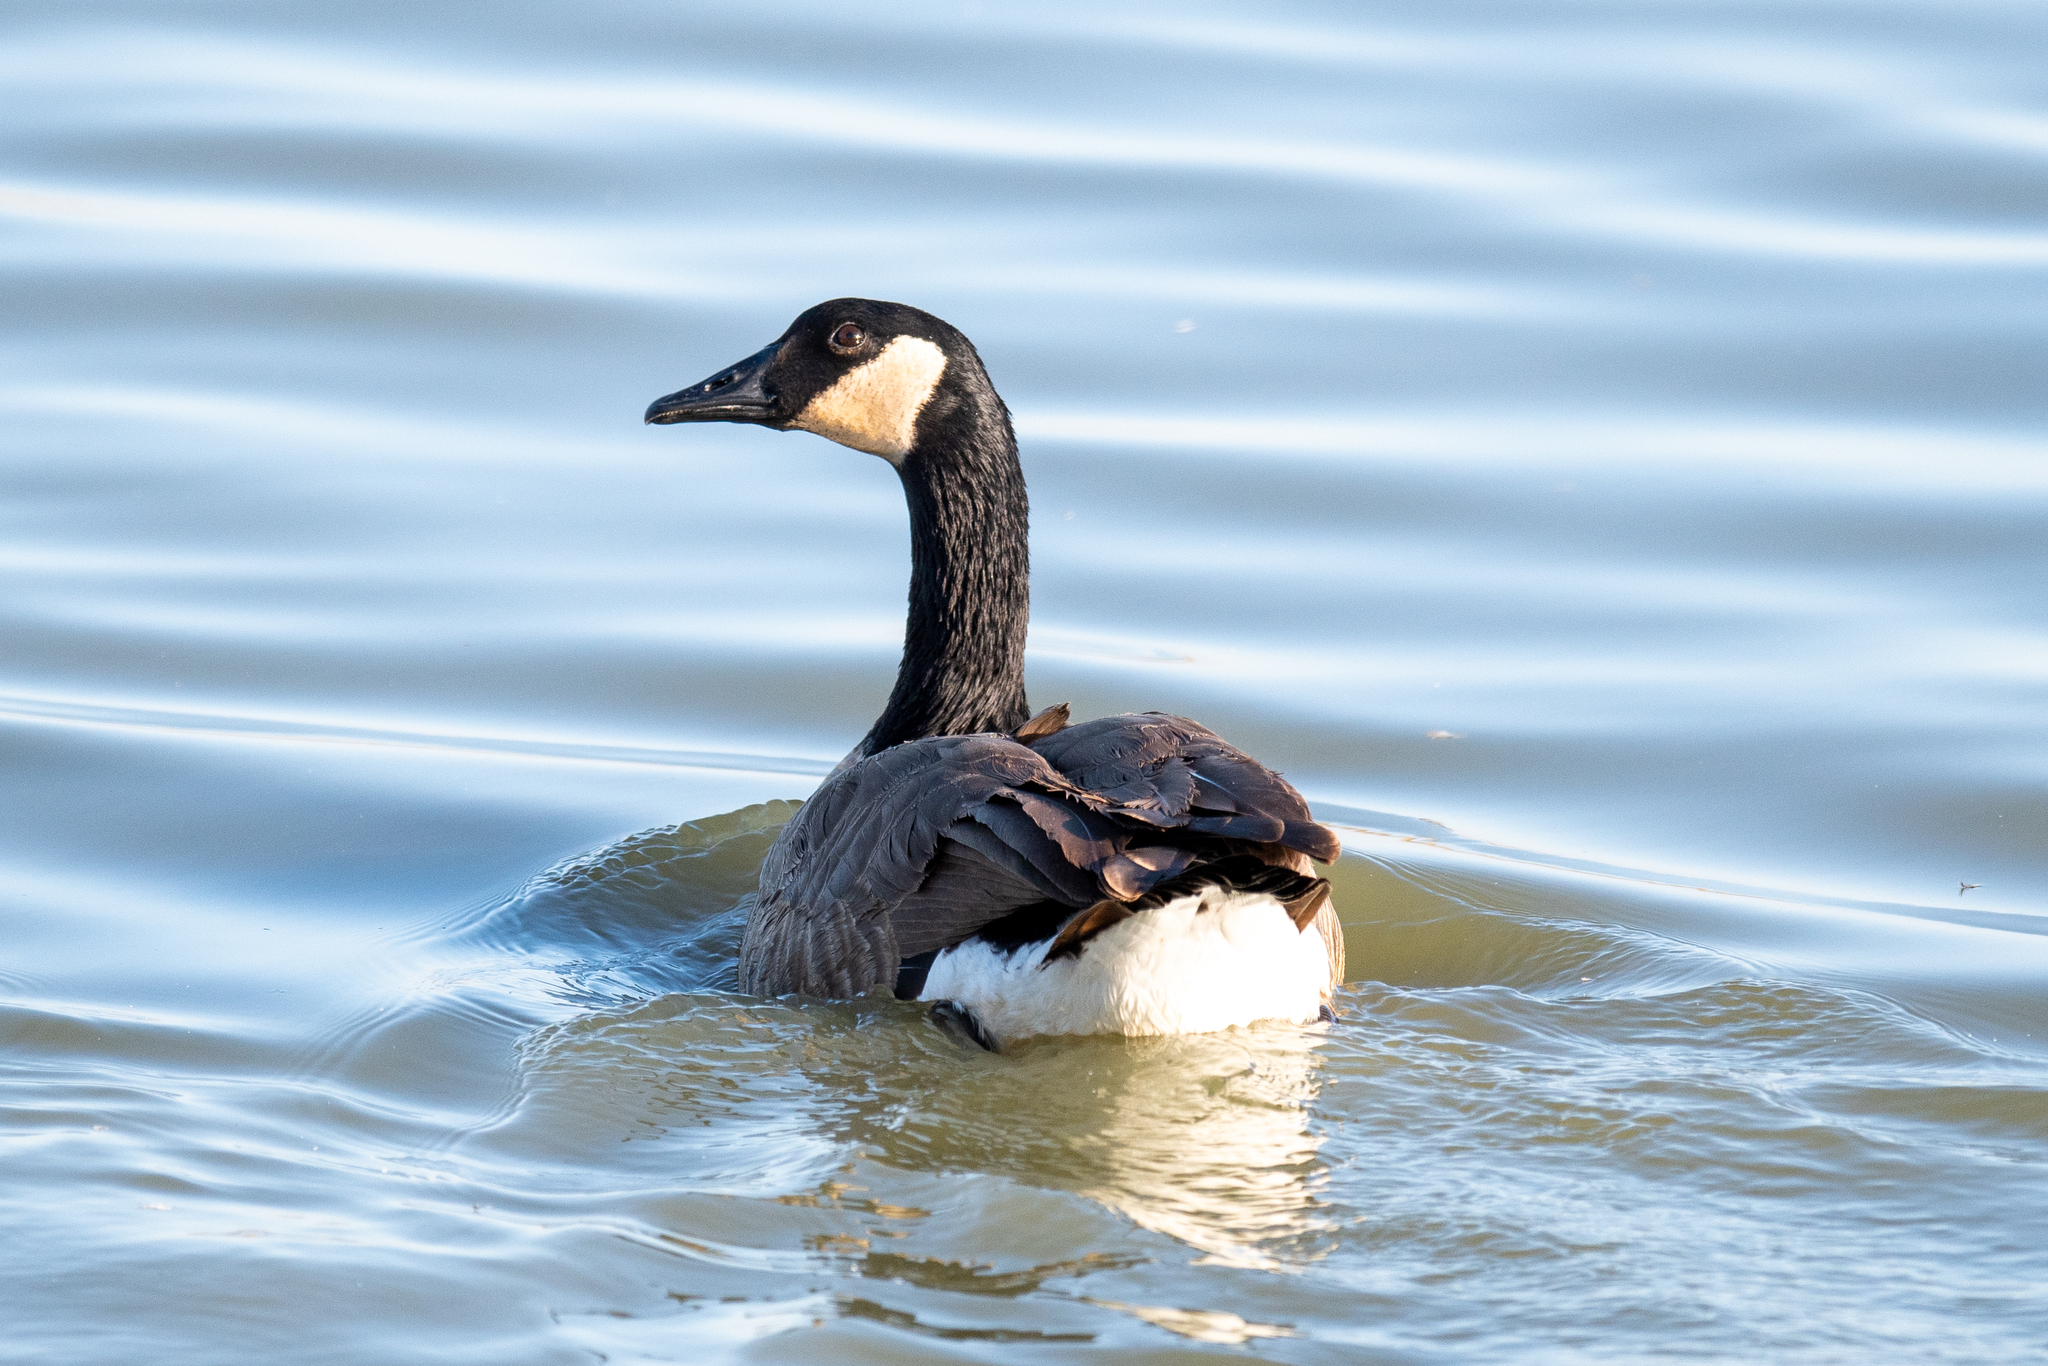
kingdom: Animalia
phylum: Chordata
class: Aves
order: Anseriformes
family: Anatidae
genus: Branta
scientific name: Branta canadensis
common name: Canada goose
